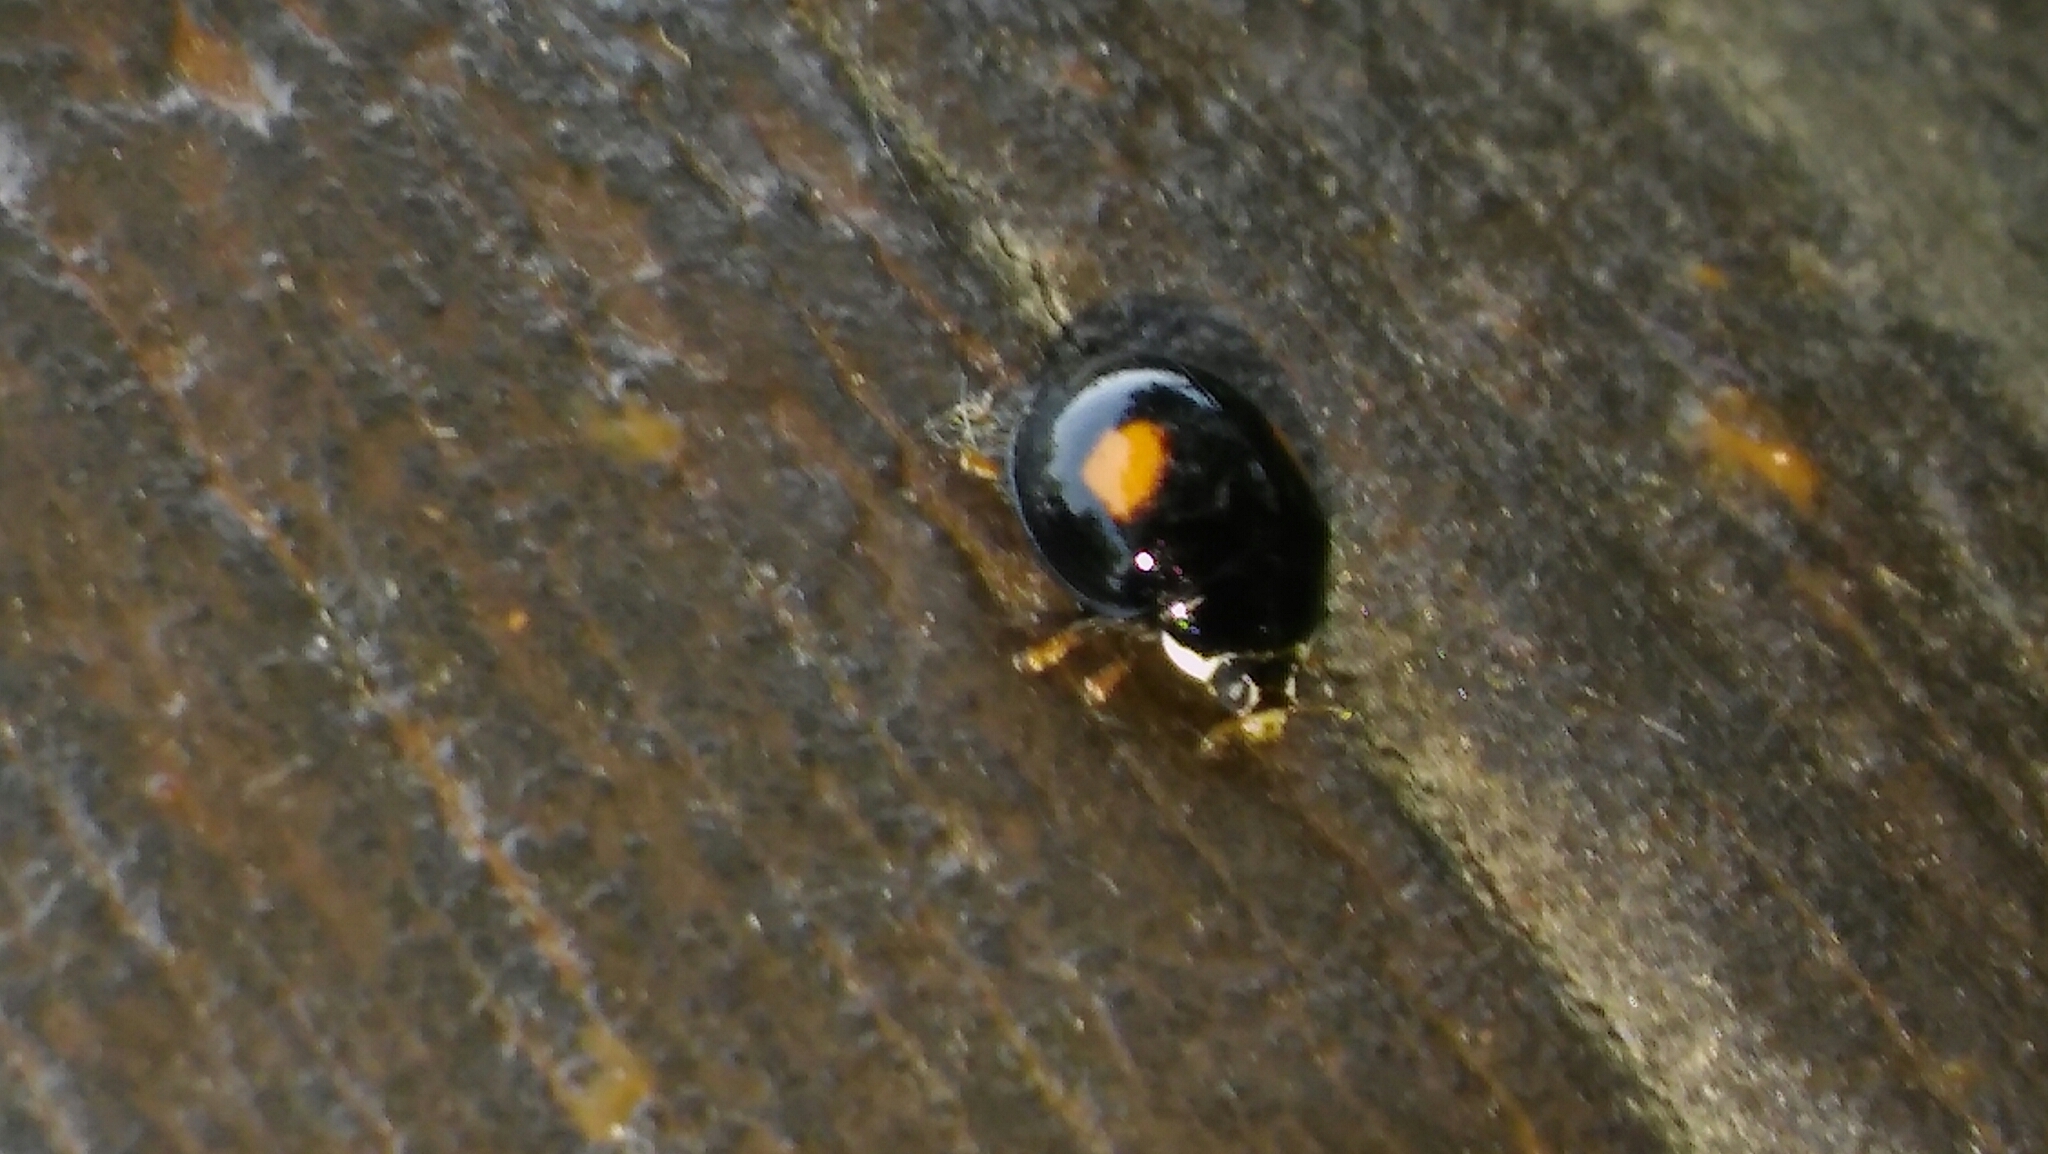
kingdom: Animalia
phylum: Arthropoda
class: Insecta
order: Coleoptera
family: Coccinellidae
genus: Olla
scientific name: Olla v-nigrum
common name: Ashy gray lady beetle
